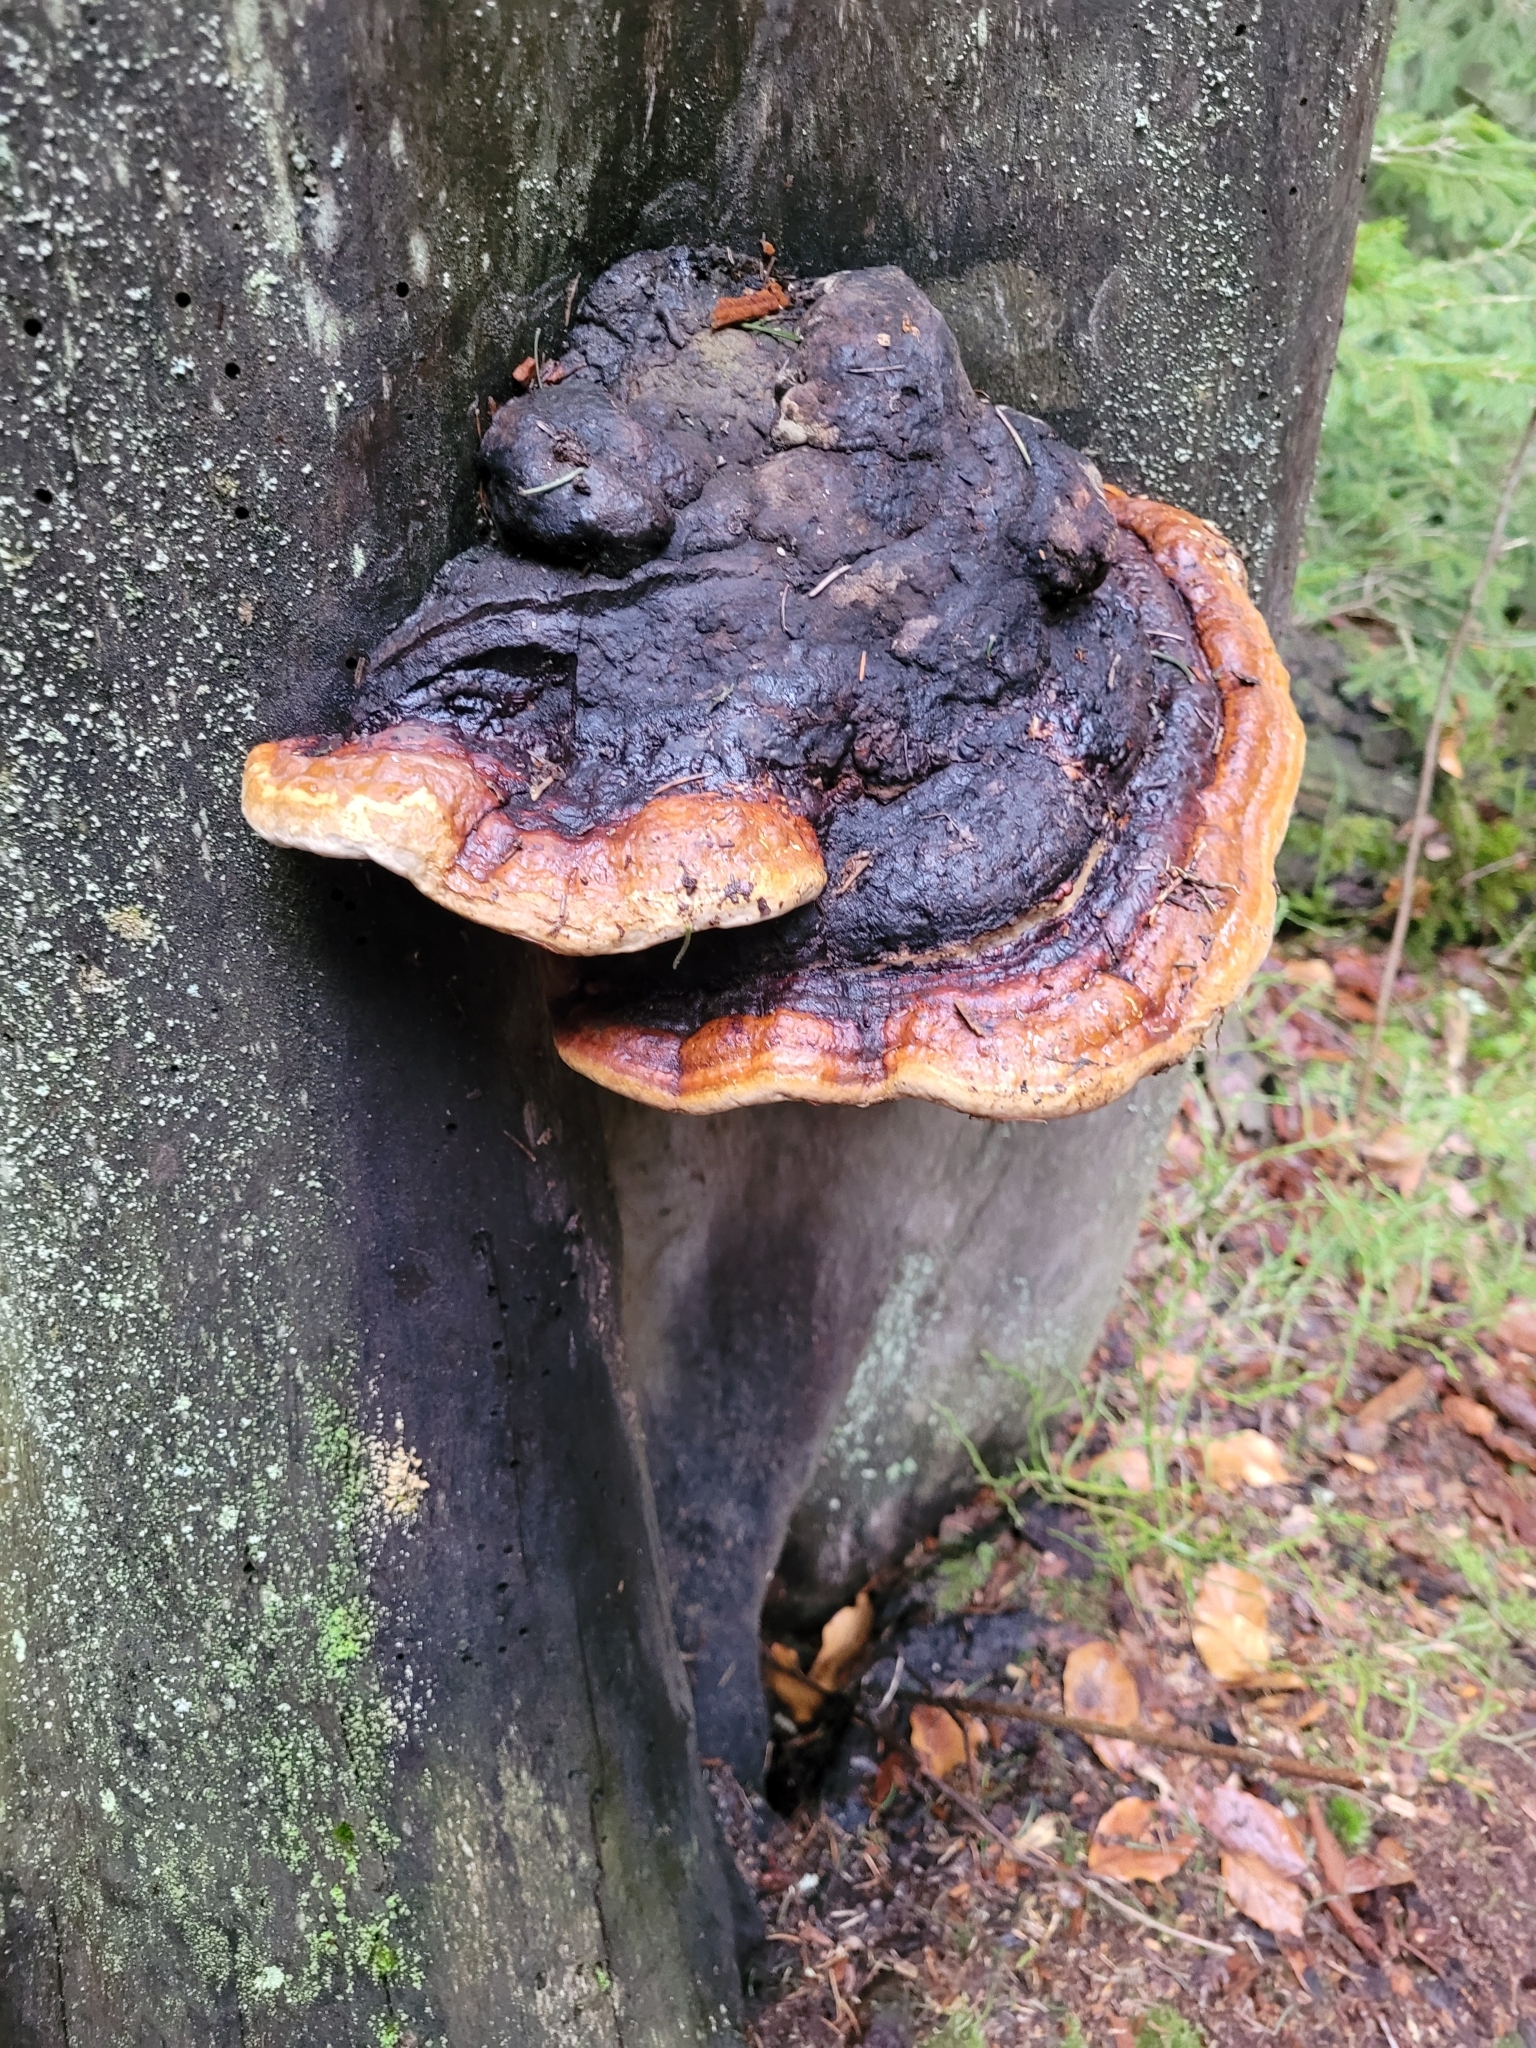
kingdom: Fungi
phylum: Basidiomycota
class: Agaricomycetes
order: Polyporales
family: Fomitopsidaceae
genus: Fomitopsis
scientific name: Fomitopsis pinicola
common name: Red-belted bracket
